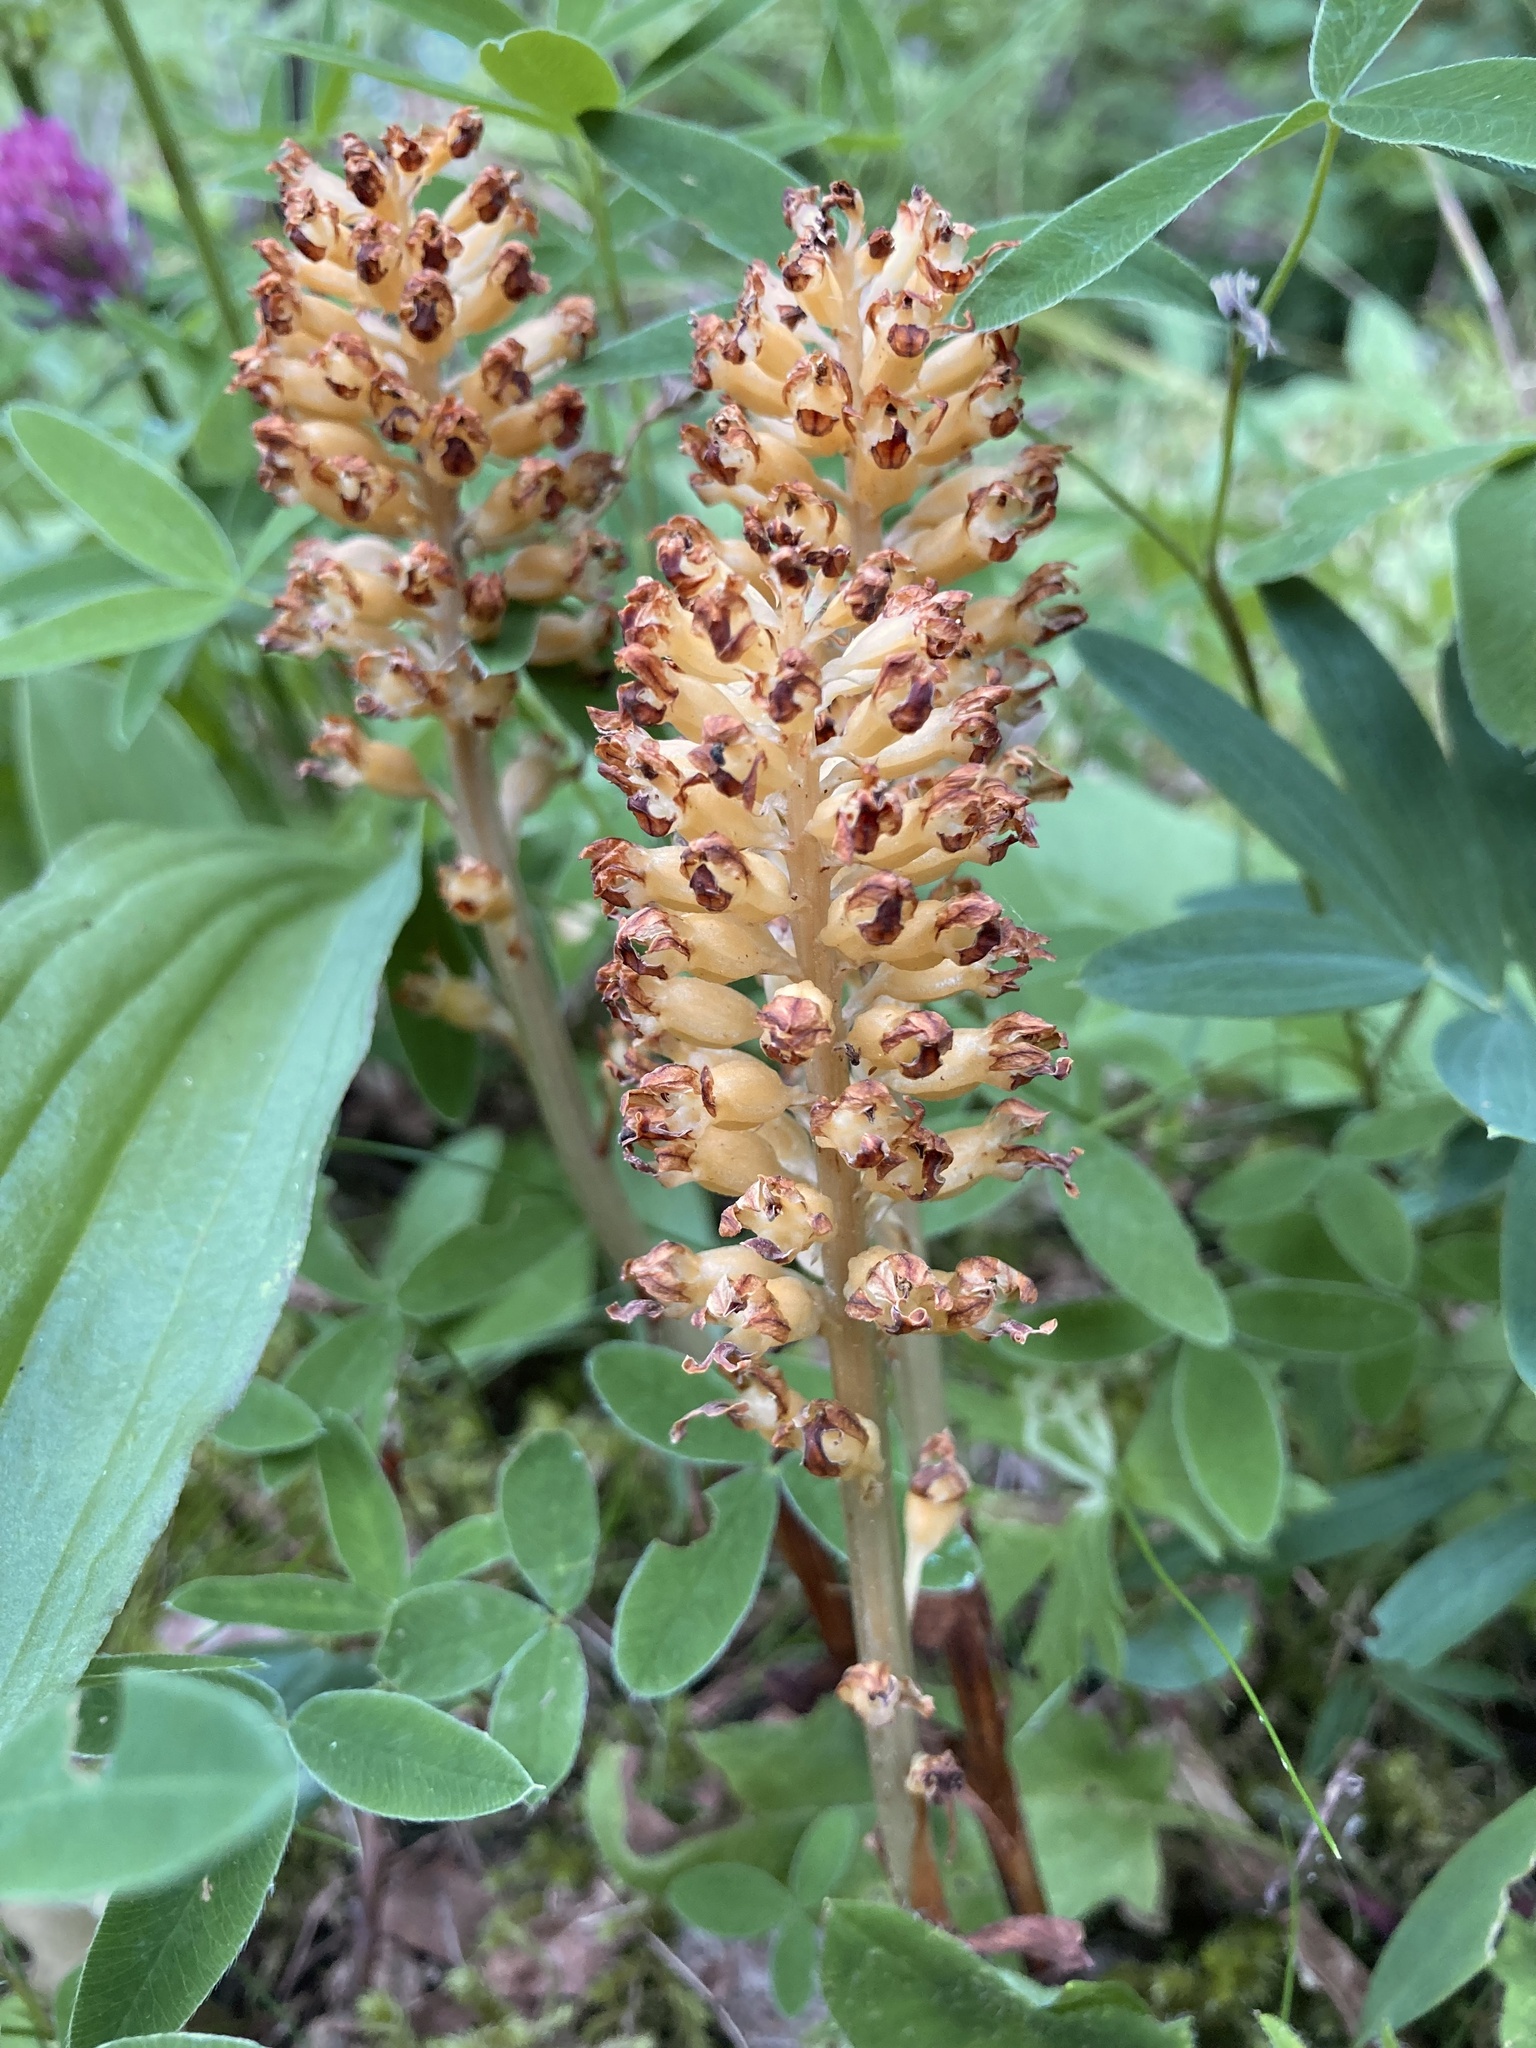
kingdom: Plantae
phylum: Tracheophyta
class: Liliopsida
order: Asparagales
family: Orchidaceae
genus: Neottia
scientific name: Neottia nidus-avis
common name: Bird's-nest orchid
